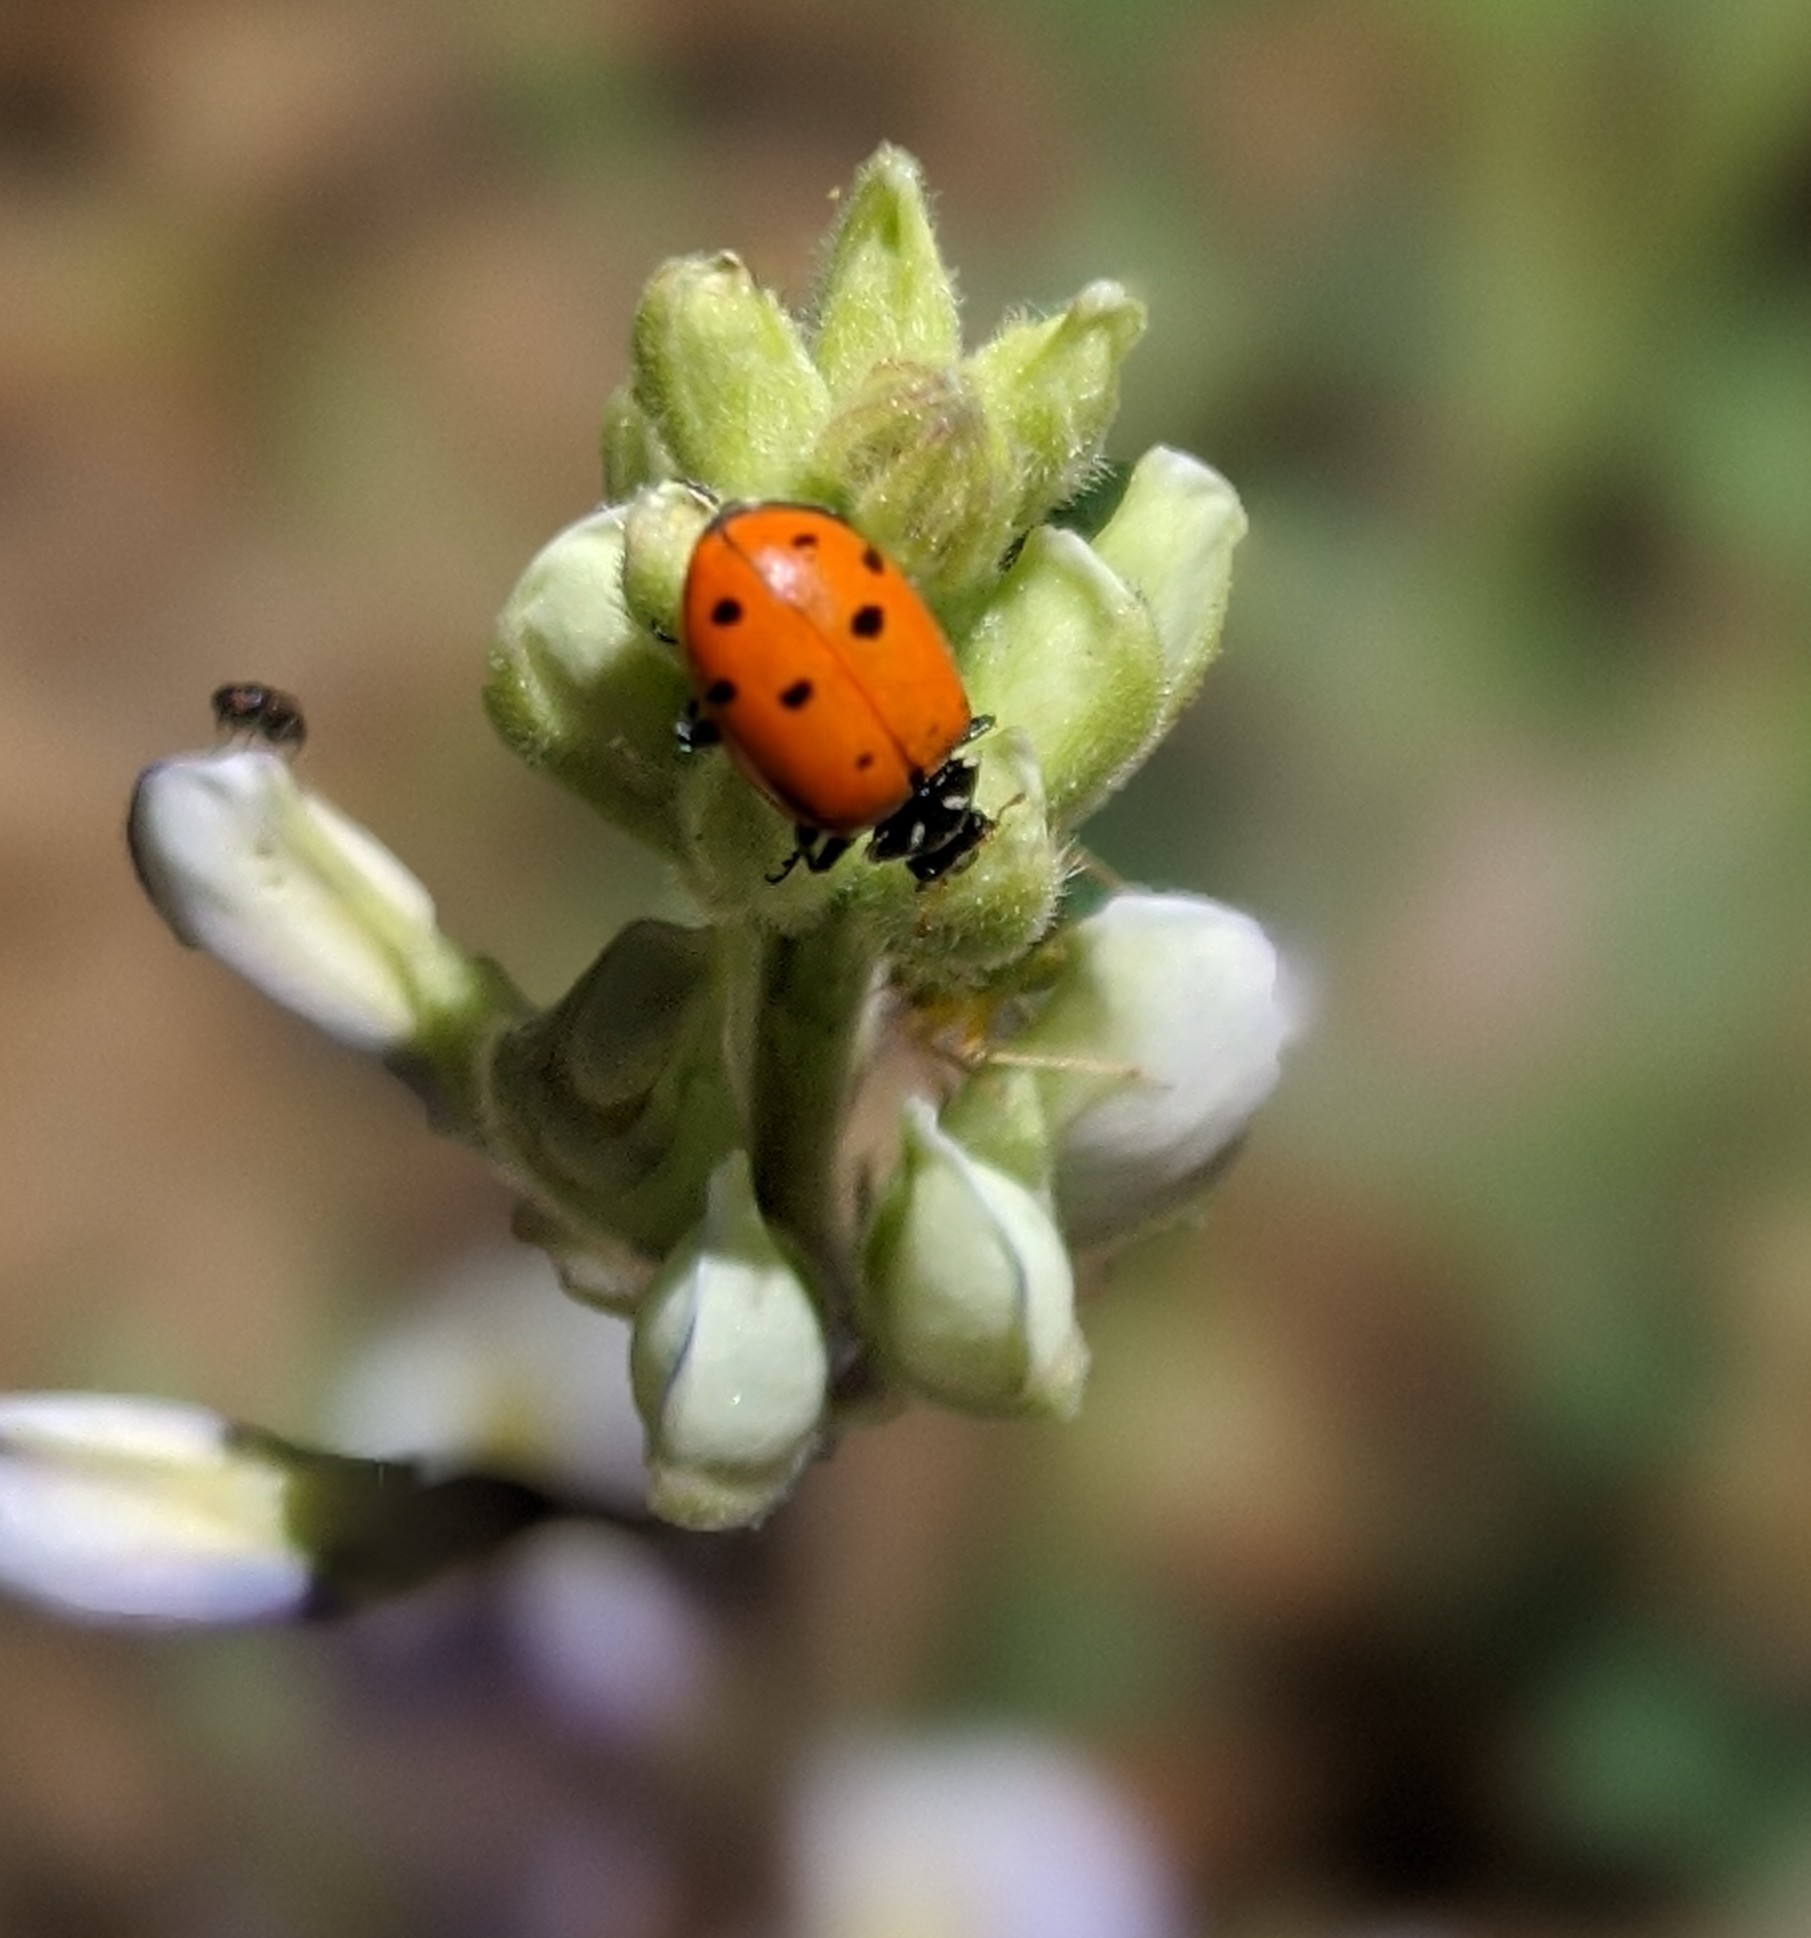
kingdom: Animalia
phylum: Arthropoda
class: Insecta
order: Coleoptera
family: Coccinellidae
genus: Hippodamia
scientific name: Hippodamia convergens
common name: Convergent lady beetle
